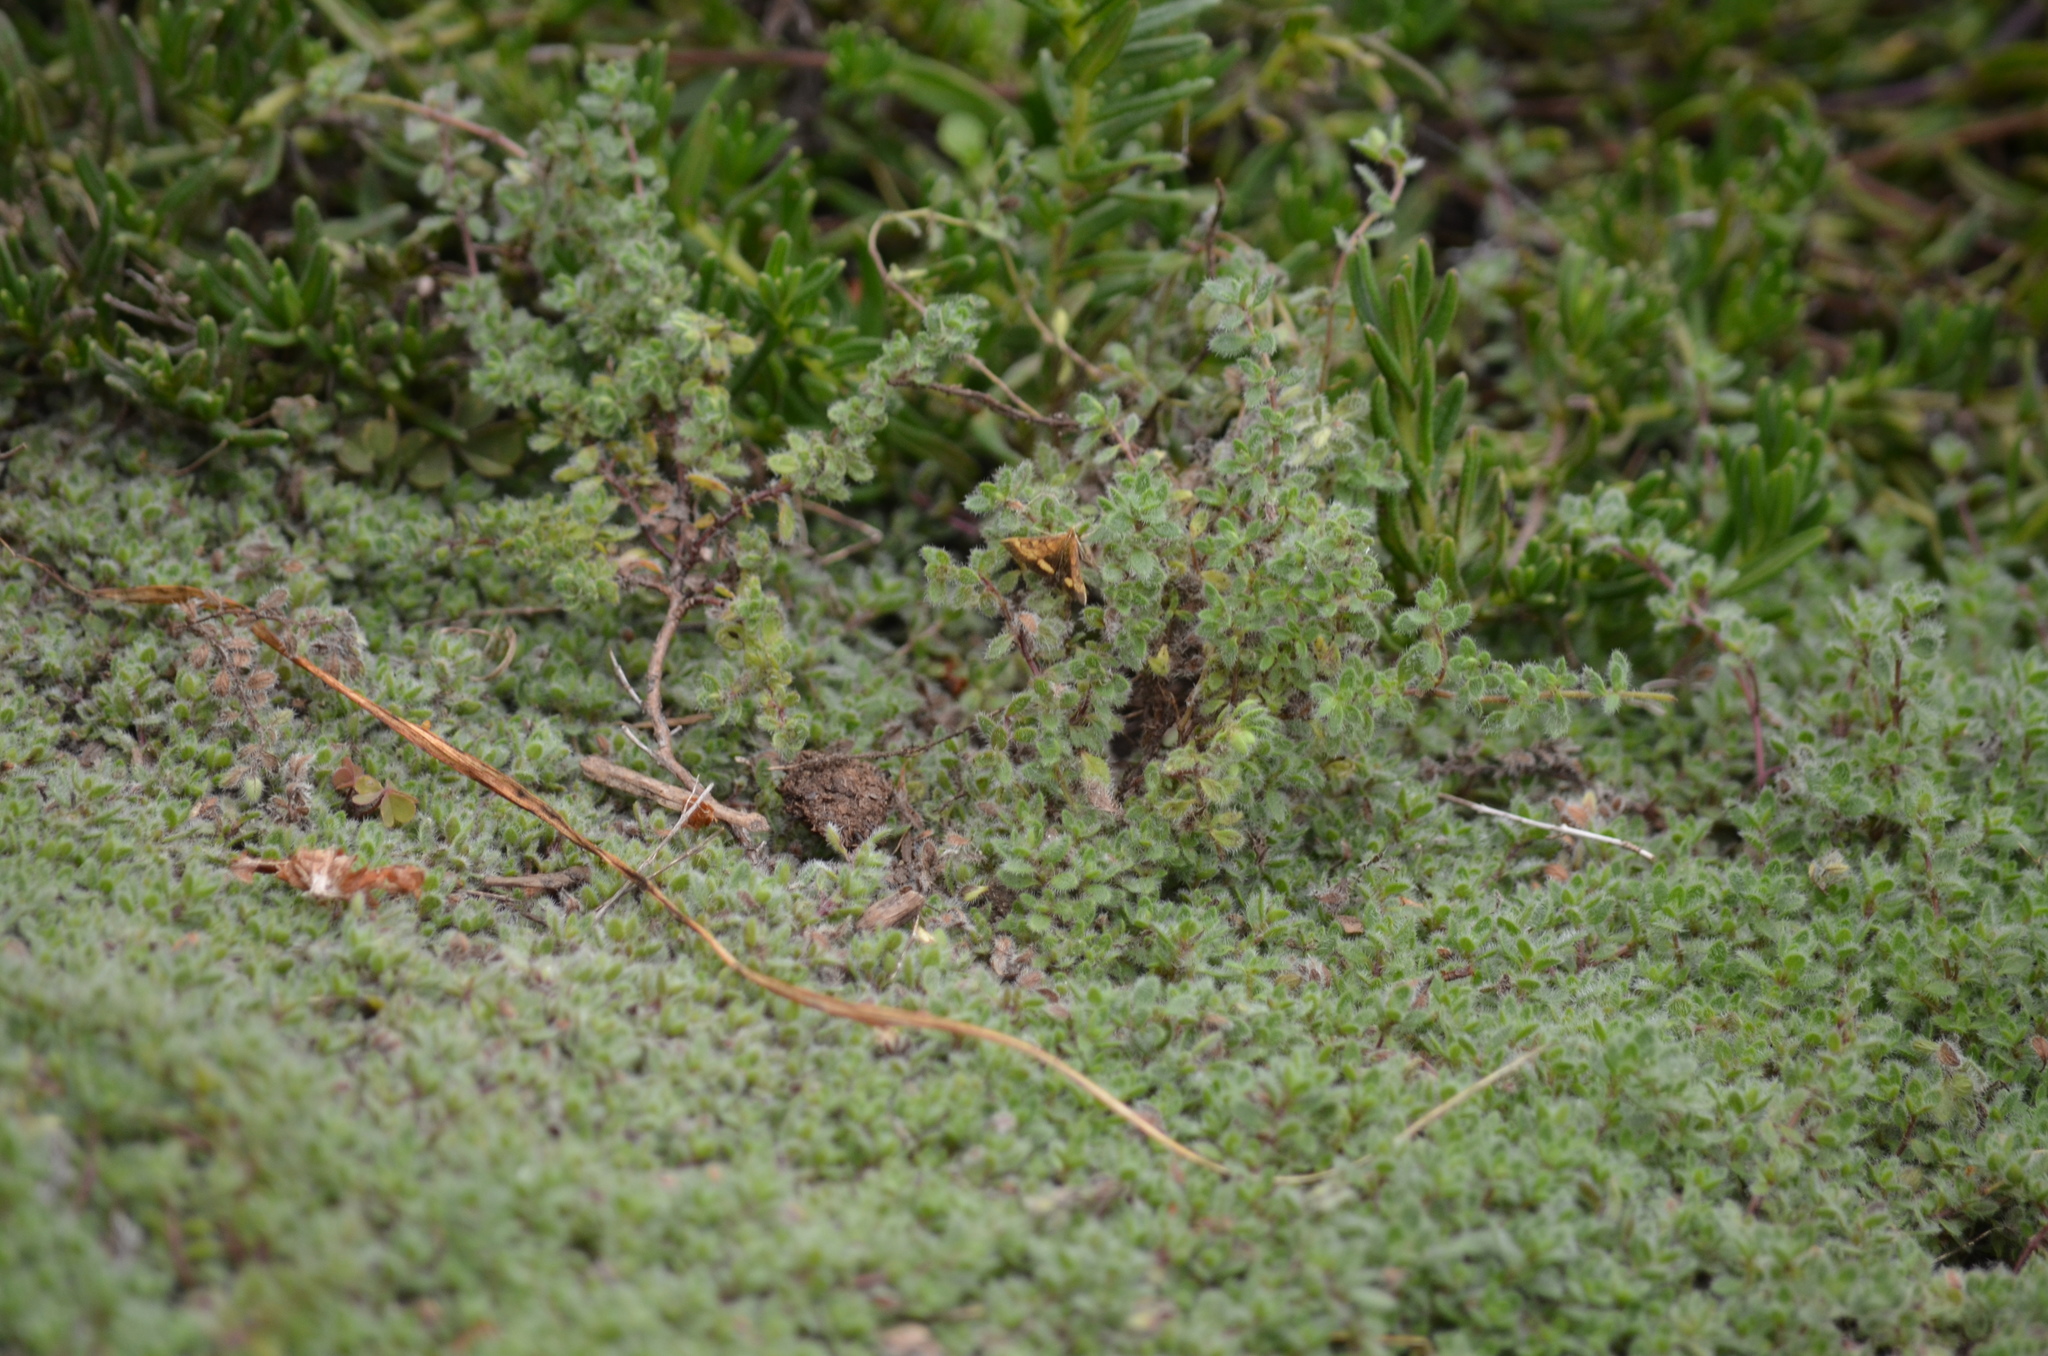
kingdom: Animalia
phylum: Arthropoda
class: Insecta
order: Lepidoptera
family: Crambidae
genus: Pyrausta
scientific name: Pyrausta californicalis
